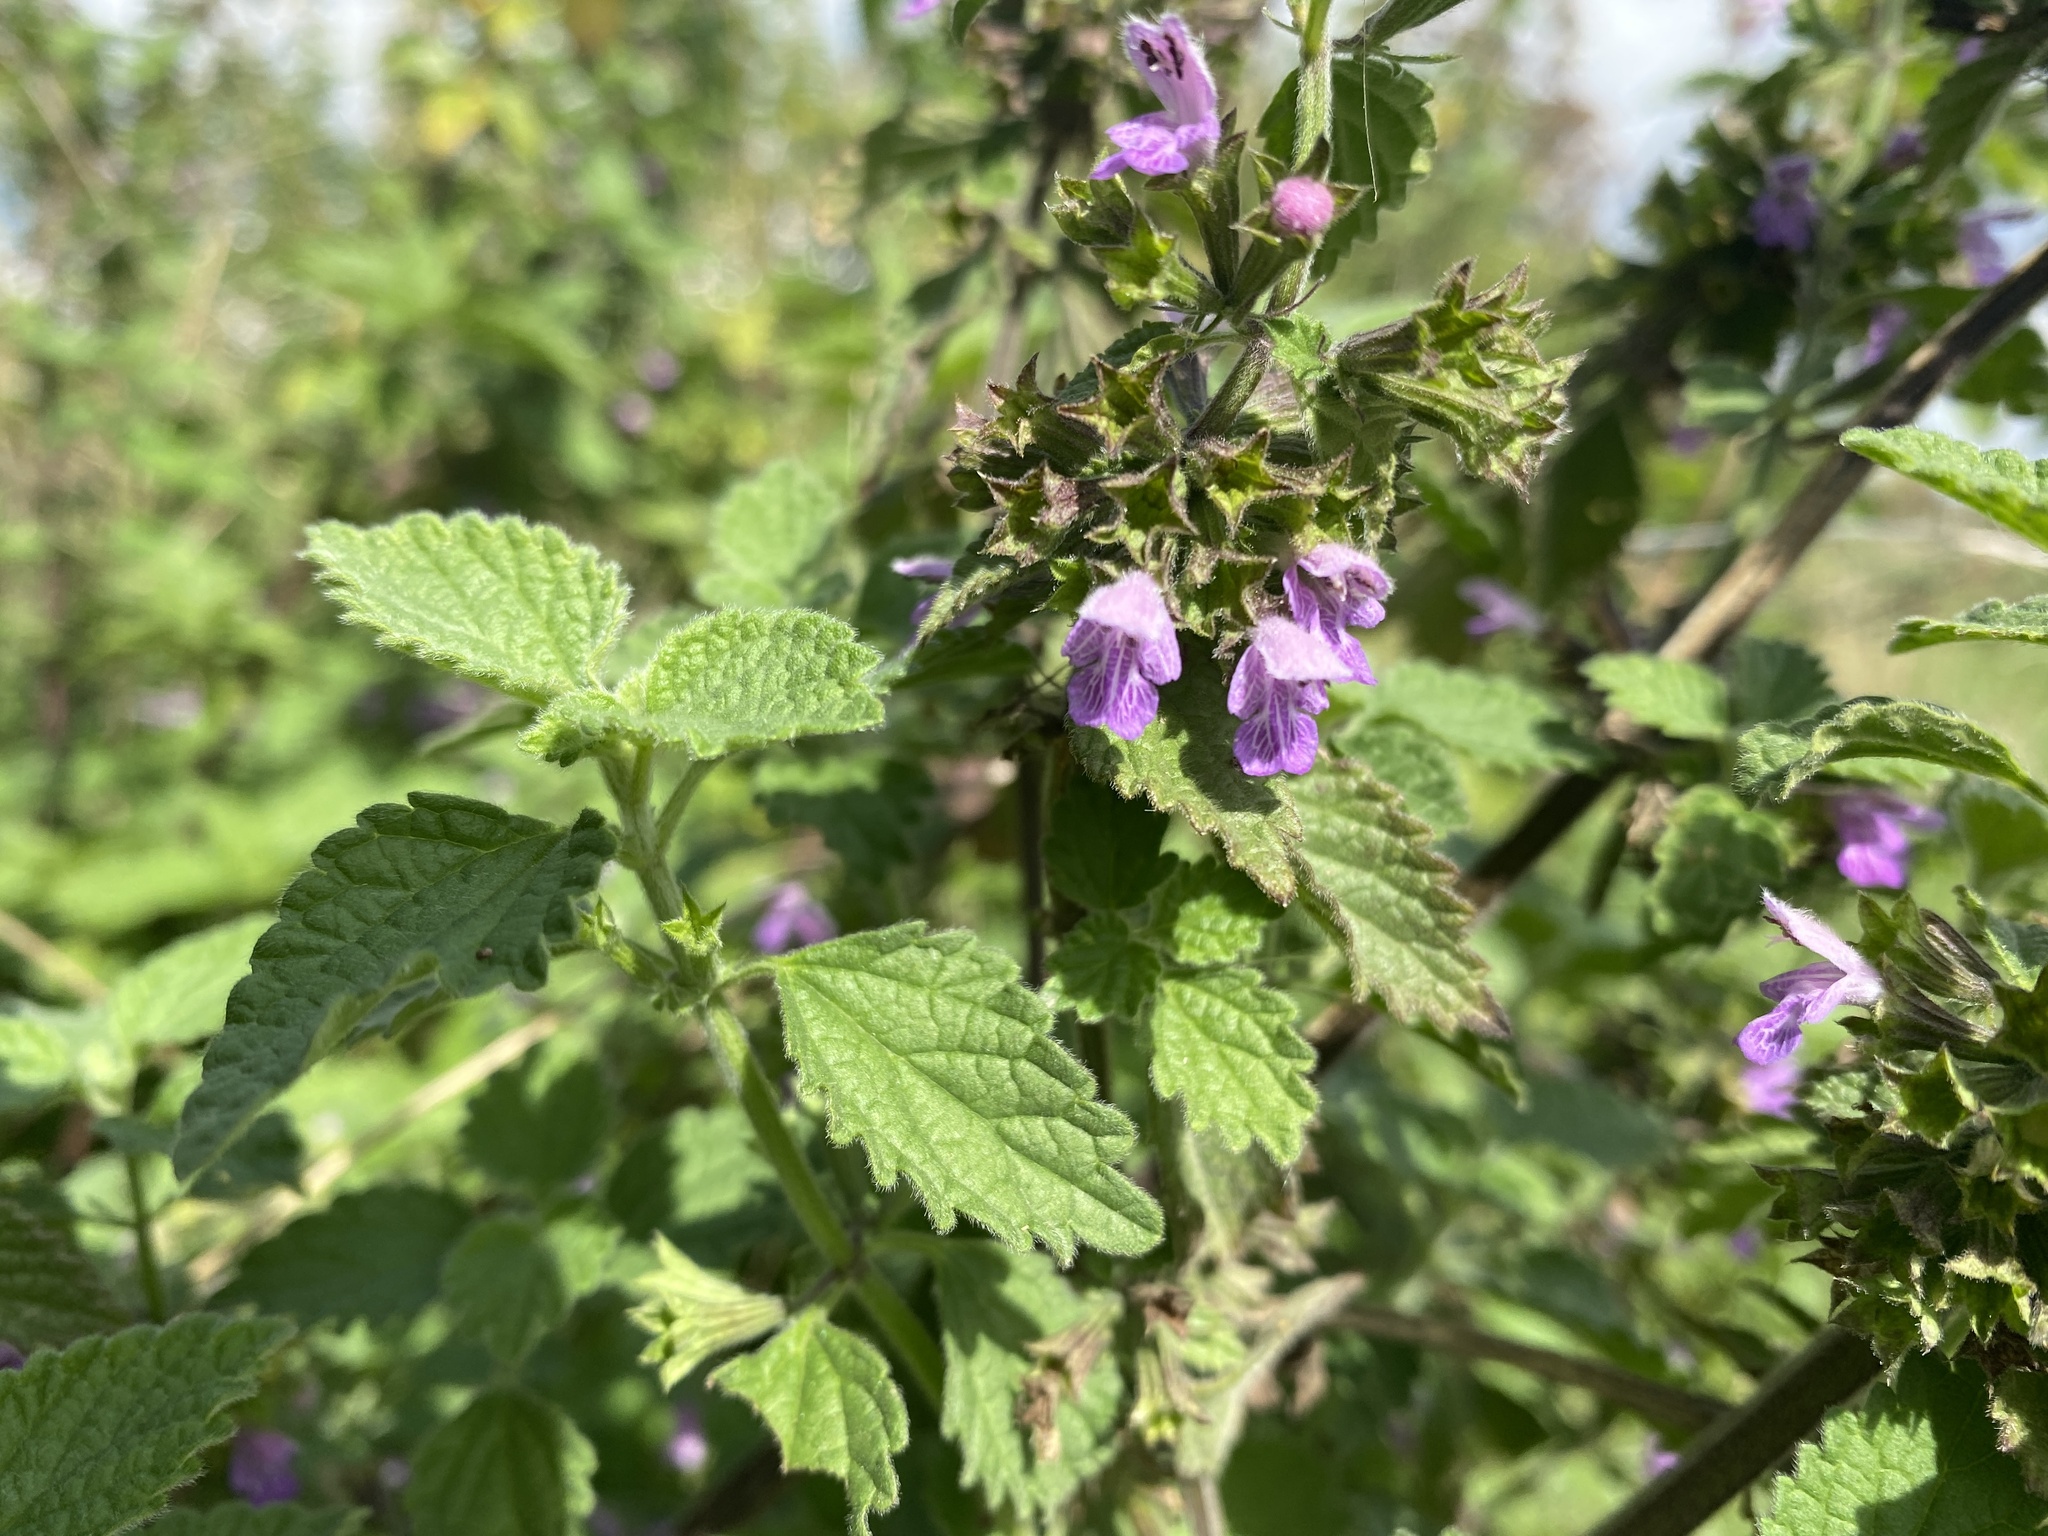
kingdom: Plantae
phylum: Tracheophyta
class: Magnoliopsida
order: Lamiales
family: Lamiaceae
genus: Ballota
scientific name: Ballota nigra
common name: Black horehound
